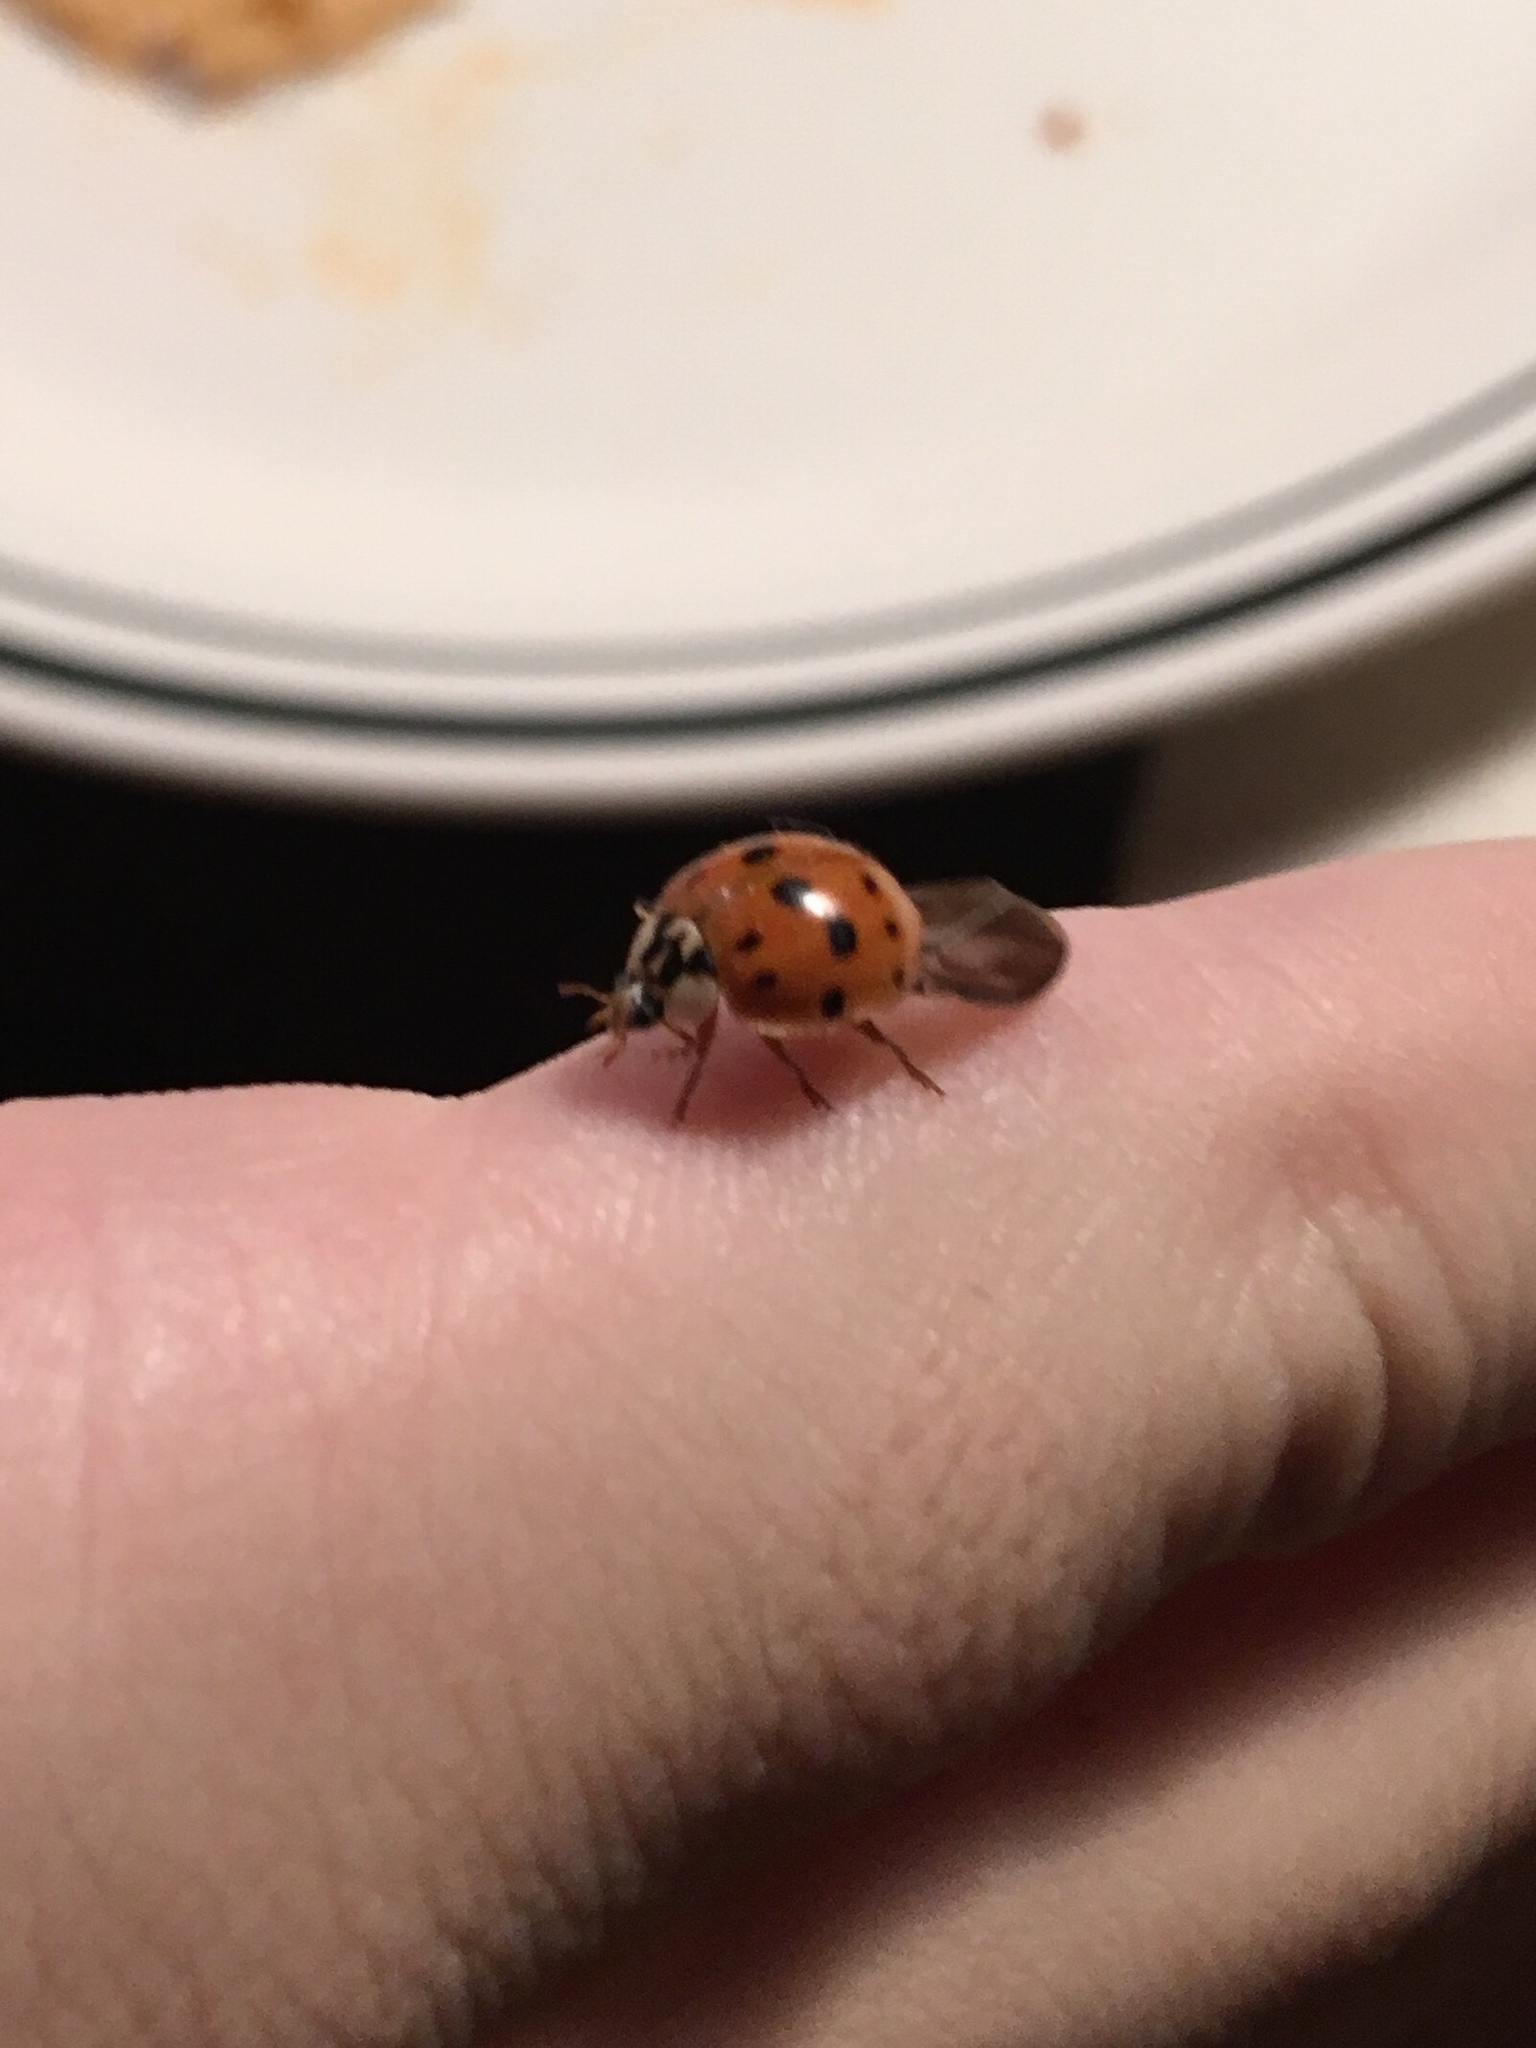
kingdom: Animalia
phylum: Arthropoda
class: Insecta
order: Coleoptera
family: Coccinellidae
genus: Harmonia
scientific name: Harmonia axyridis
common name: Harlequin ladybird
